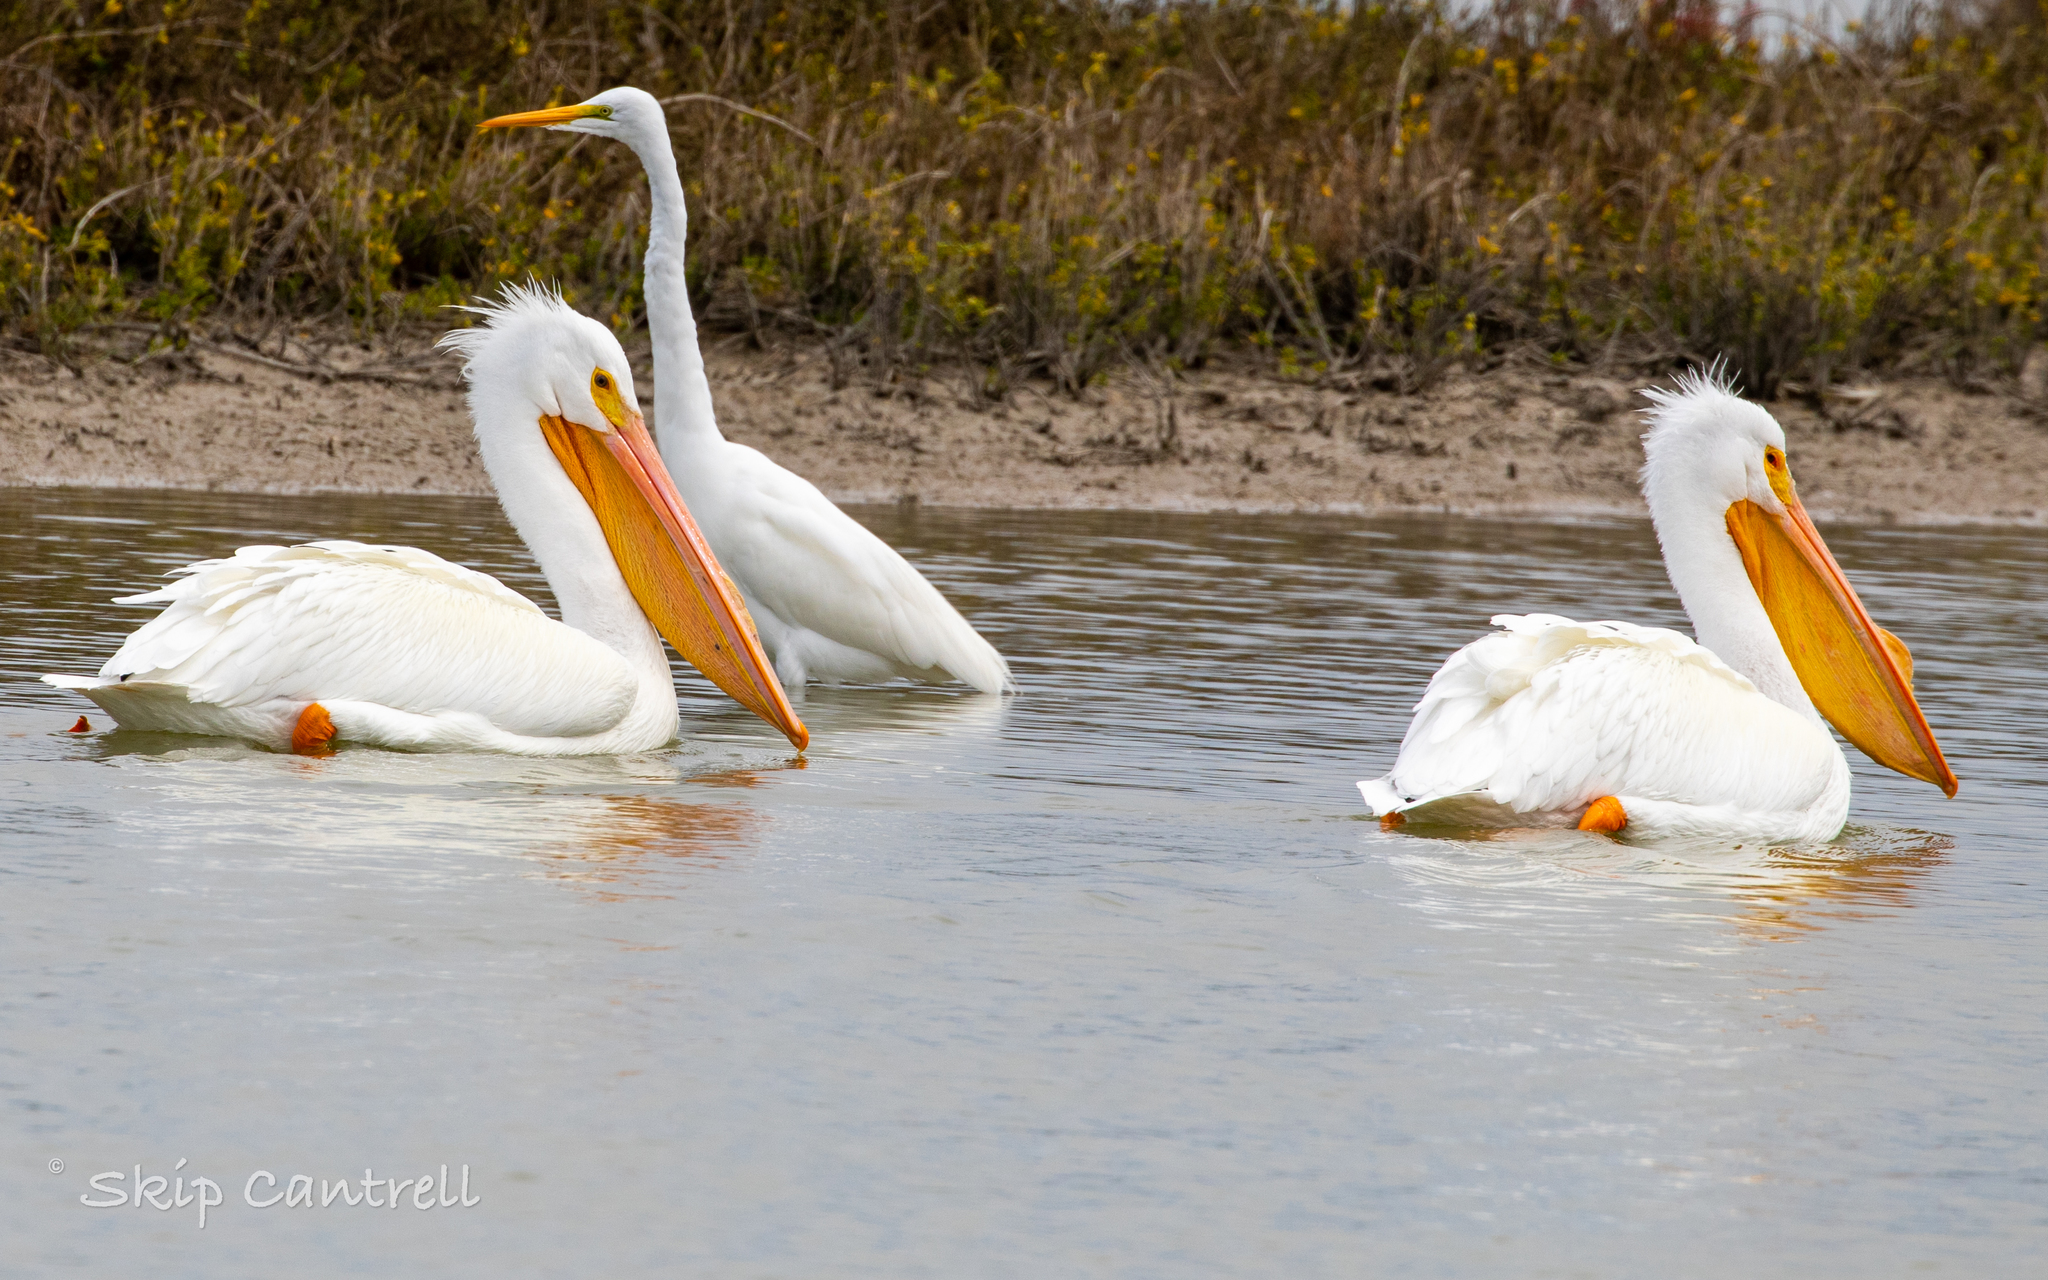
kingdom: Animalia
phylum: Chordata
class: Aves
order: Pelecaniformes
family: Pelecanidae
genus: Pelecanus
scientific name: Pelecanus erythrorhynchos
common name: American white pelican
